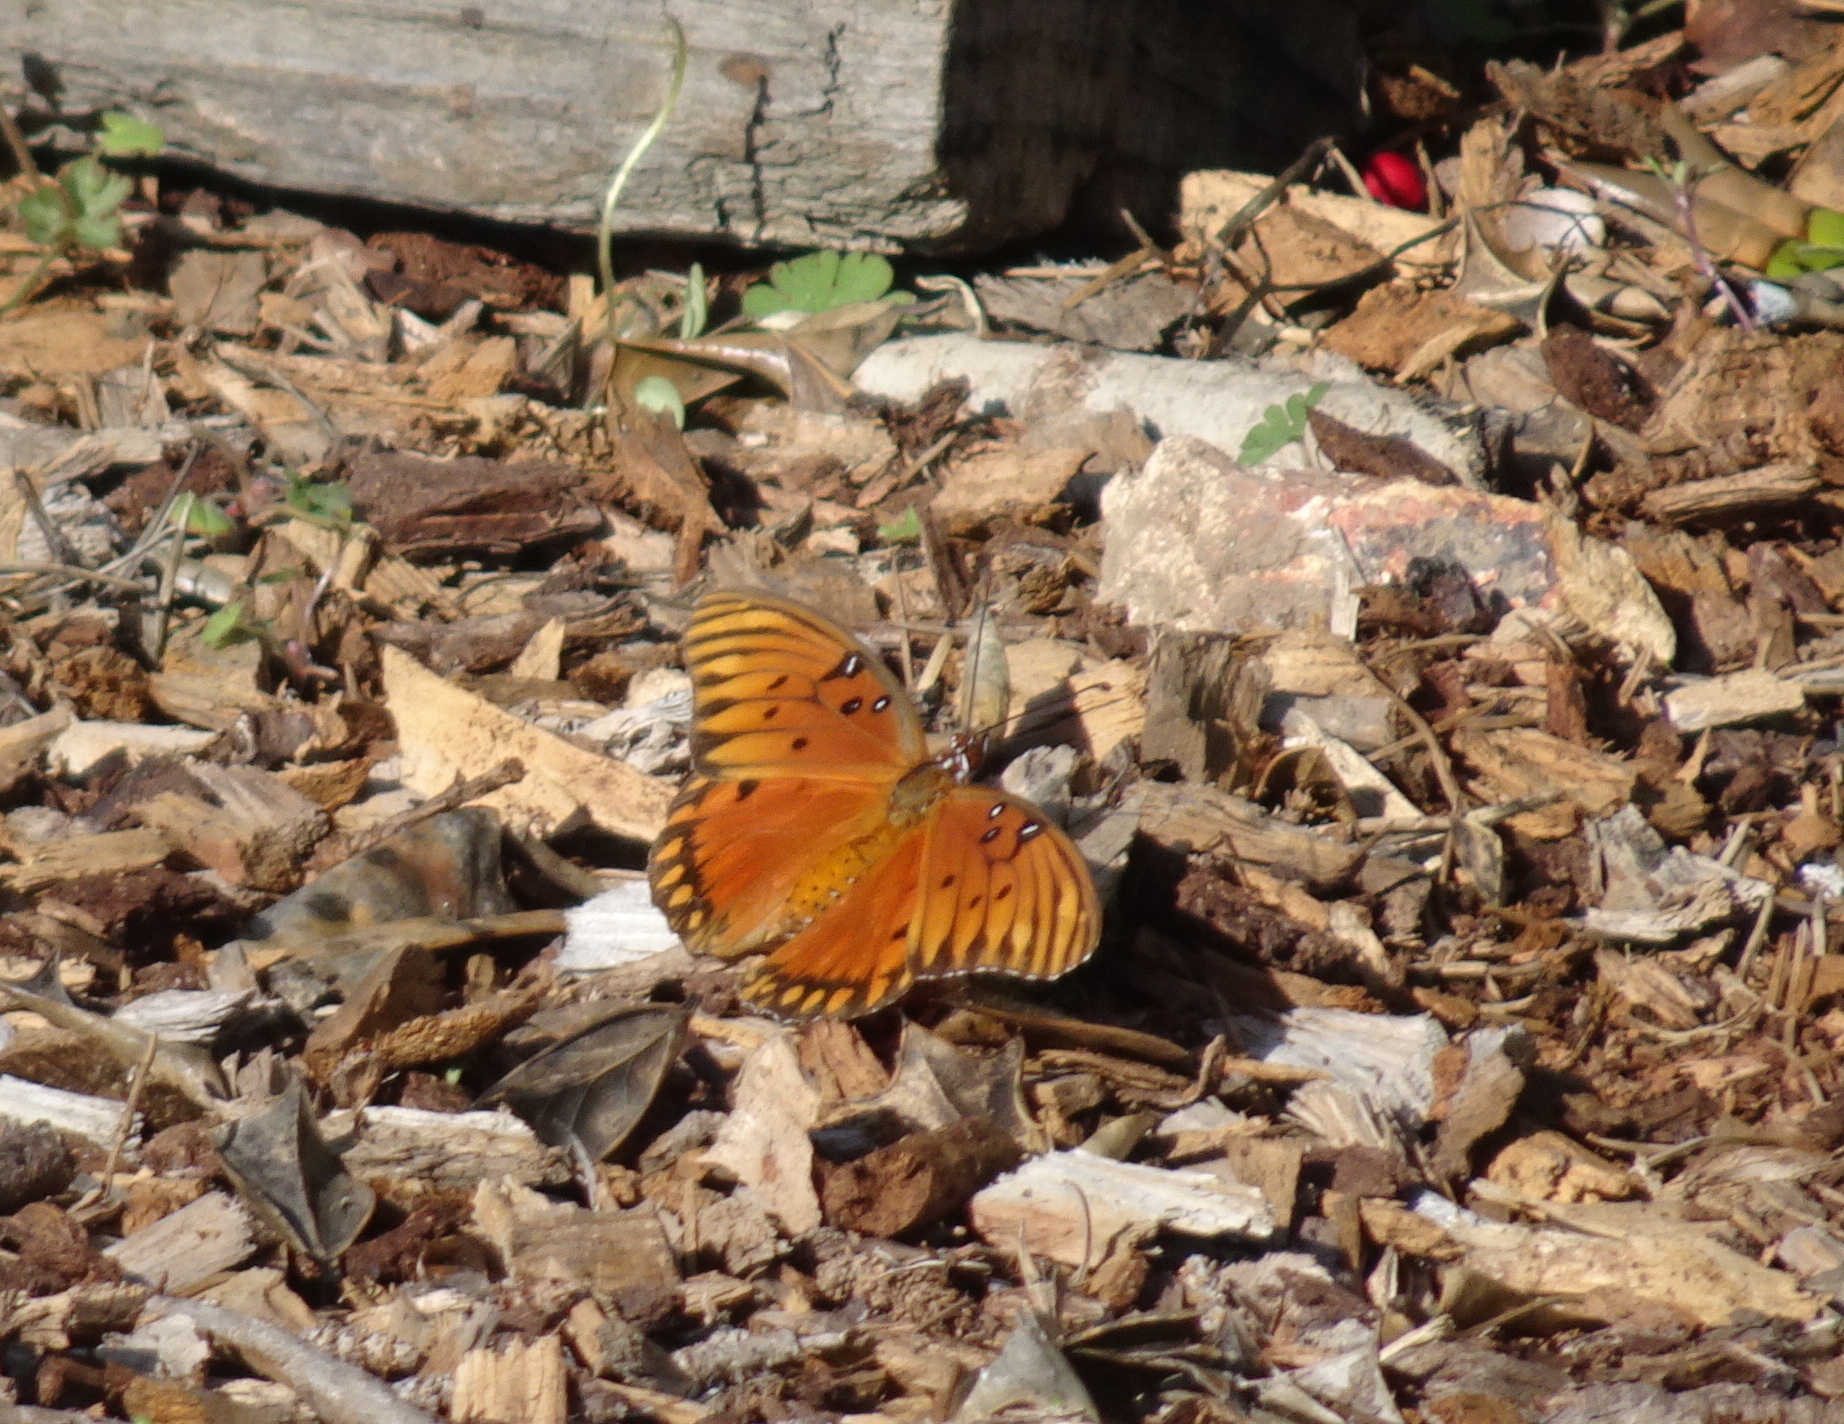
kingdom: Animalia
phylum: Arthropoda
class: Insecta
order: Lepidoptera
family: Nymphalidae
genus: Dione
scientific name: Dione vanillae
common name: Gulf fritillary
